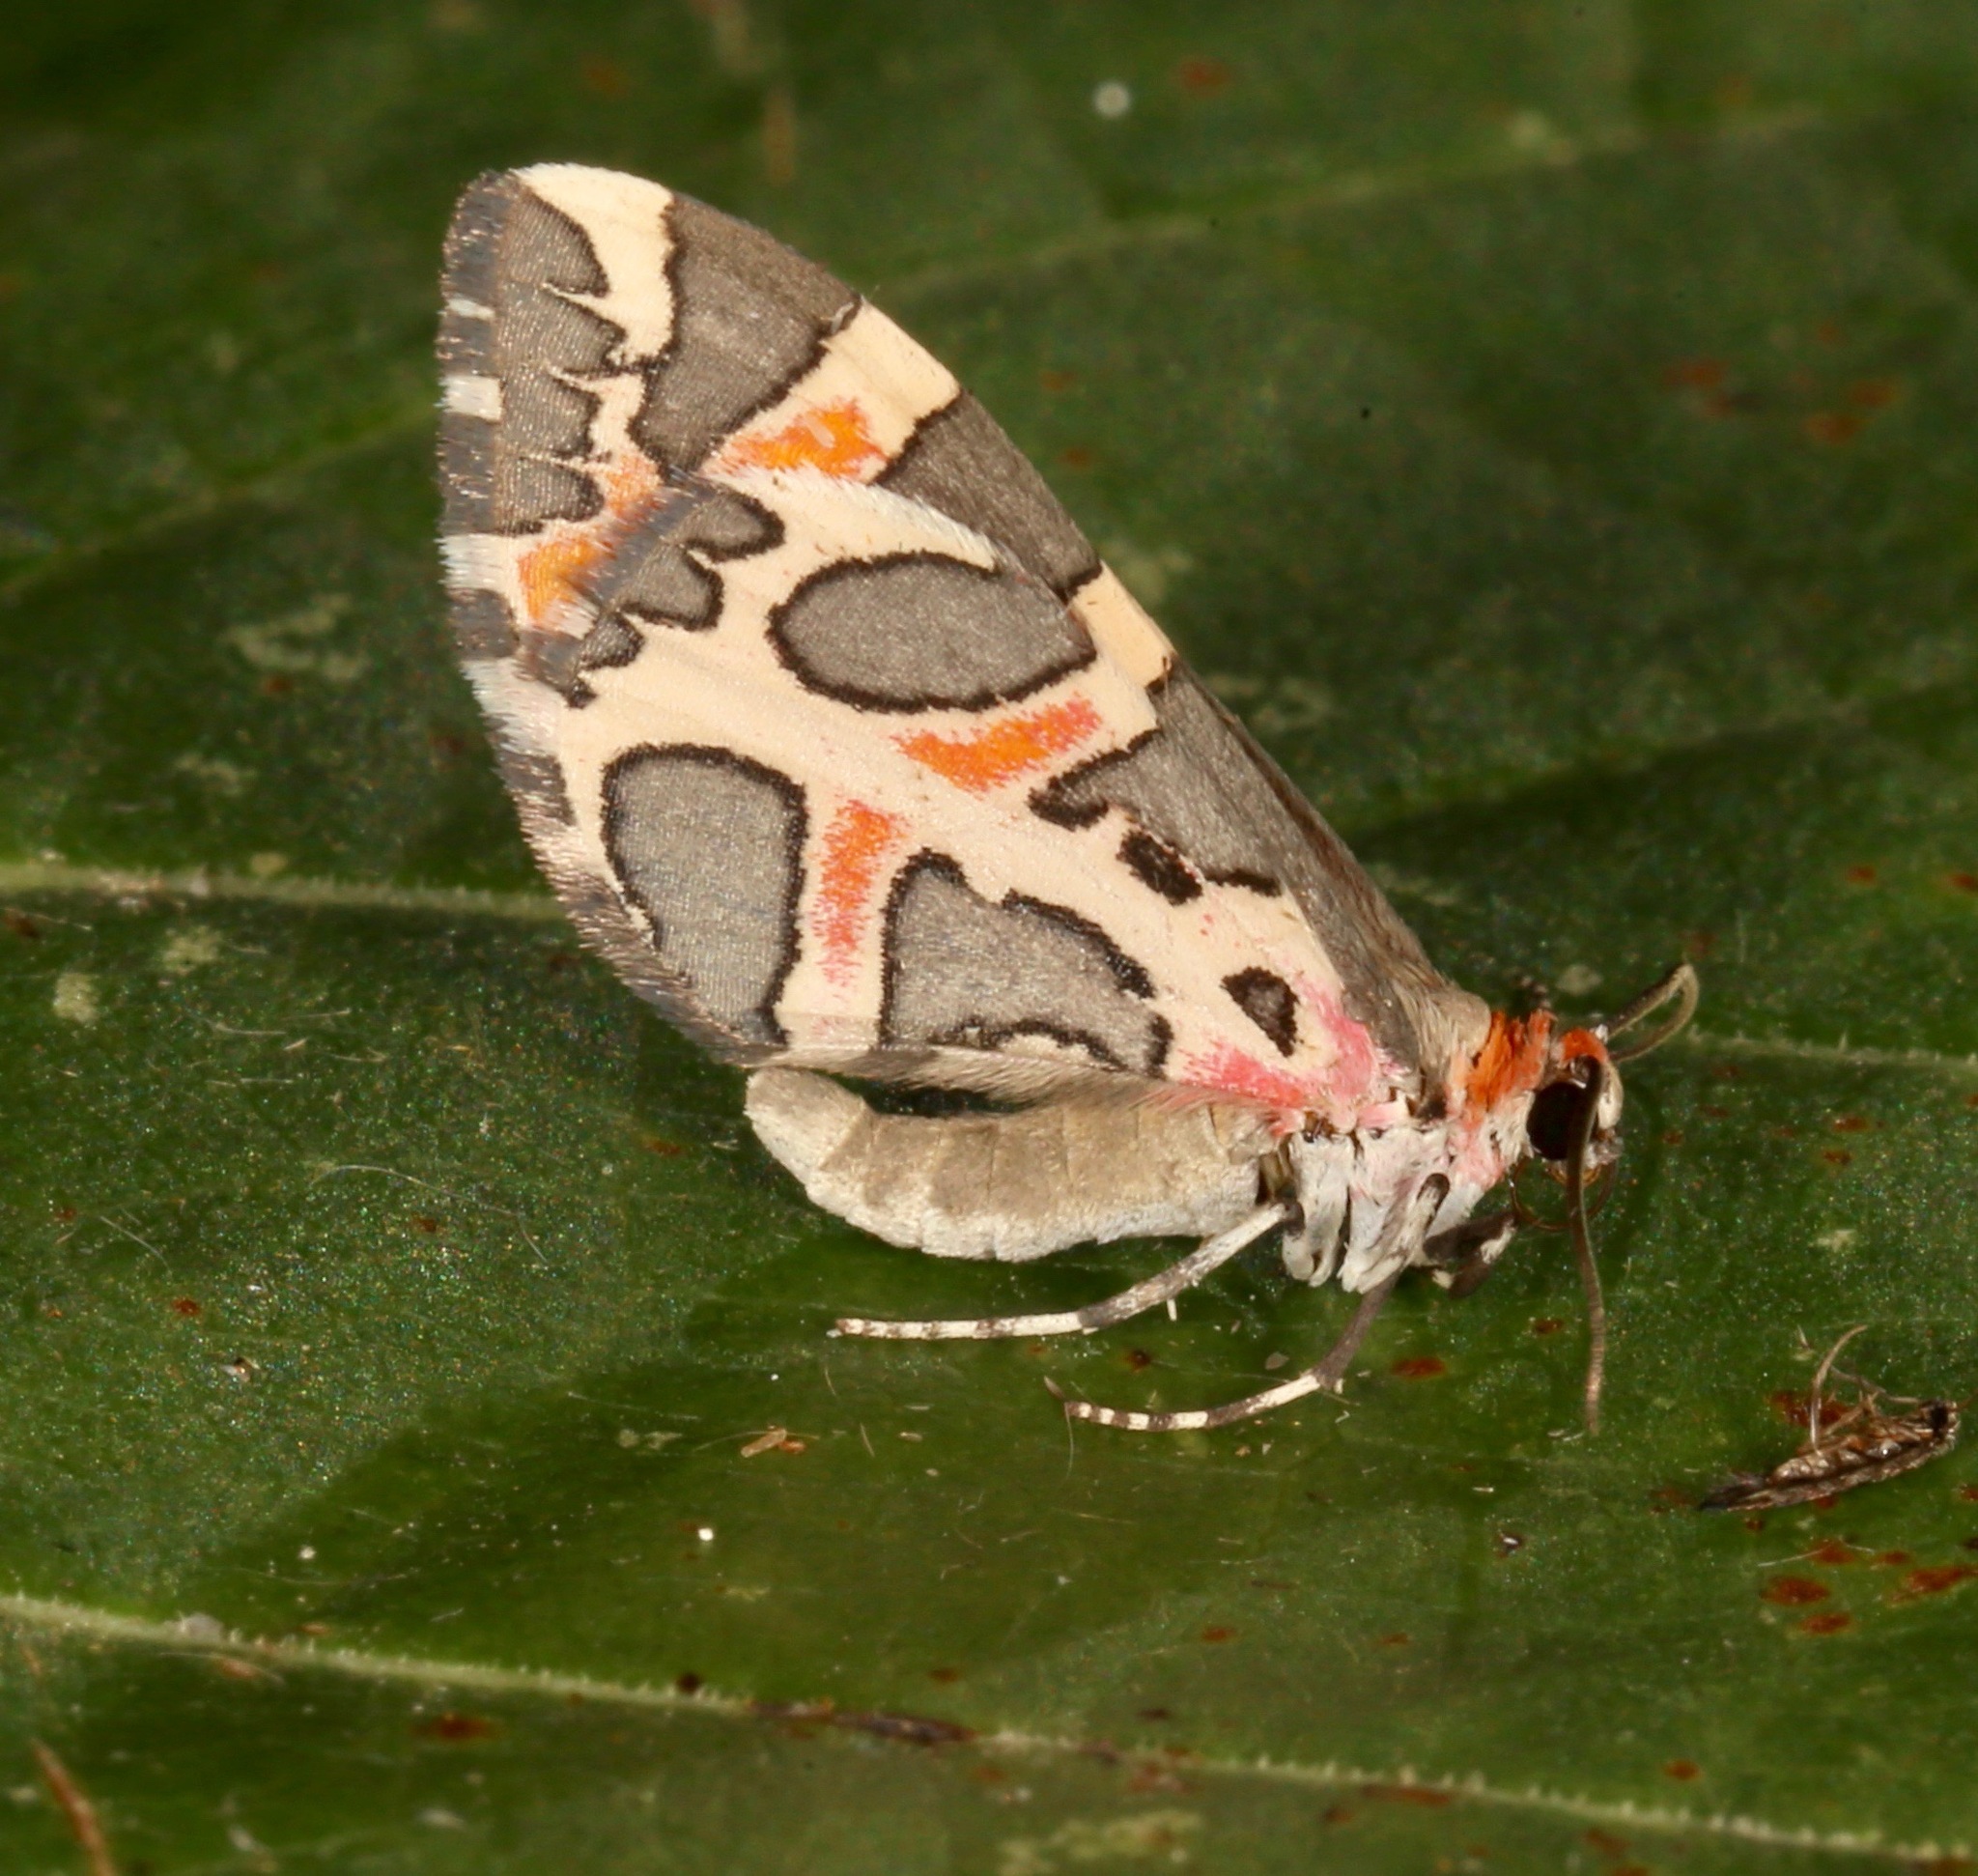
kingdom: Animalia
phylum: Arthropoda
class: Insecta
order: Lepidoptera
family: Geometridae
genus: Stamnodes
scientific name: Stamnodes deceptiva
